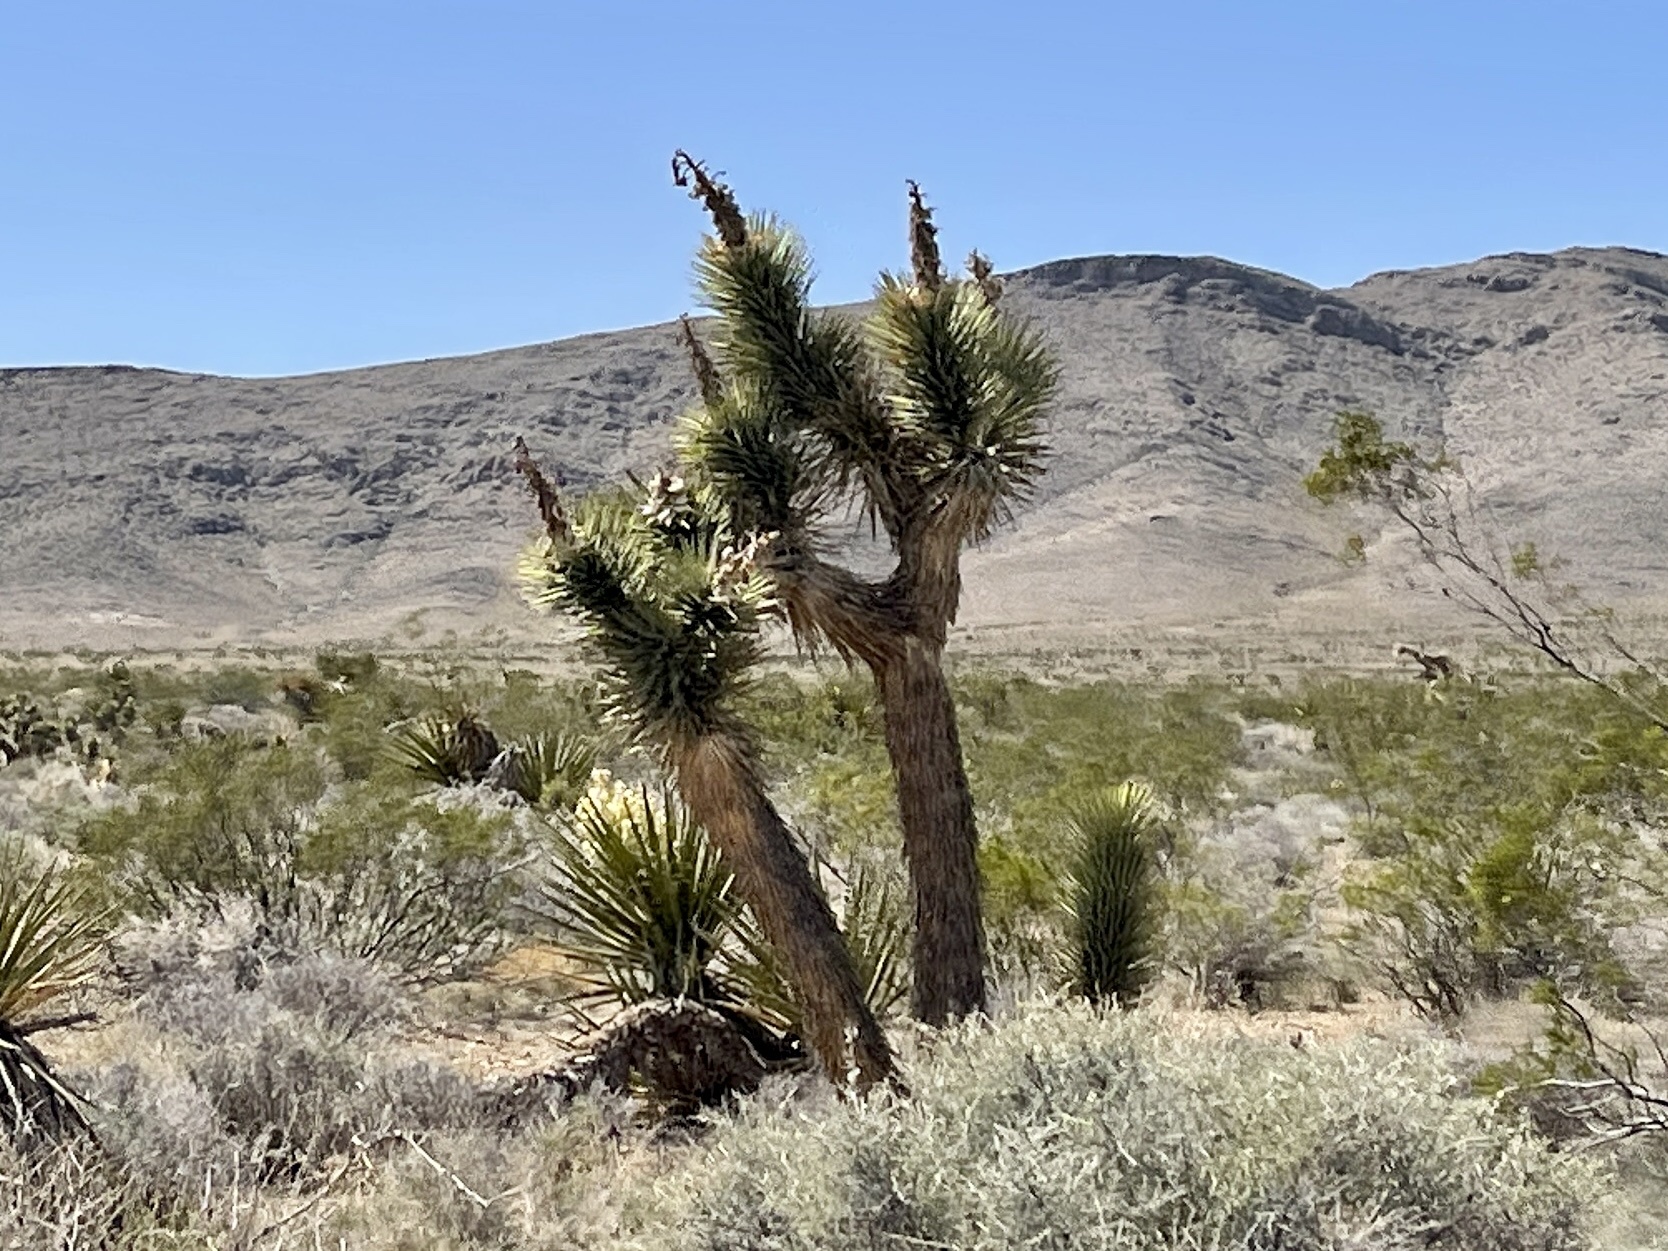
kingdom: Plantae
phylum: Tracheophyta
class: Liliopsida
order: Asparagales
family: Asparagaceae
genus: Yucca
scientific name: Yucca brevifolia
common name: Joshua tree
